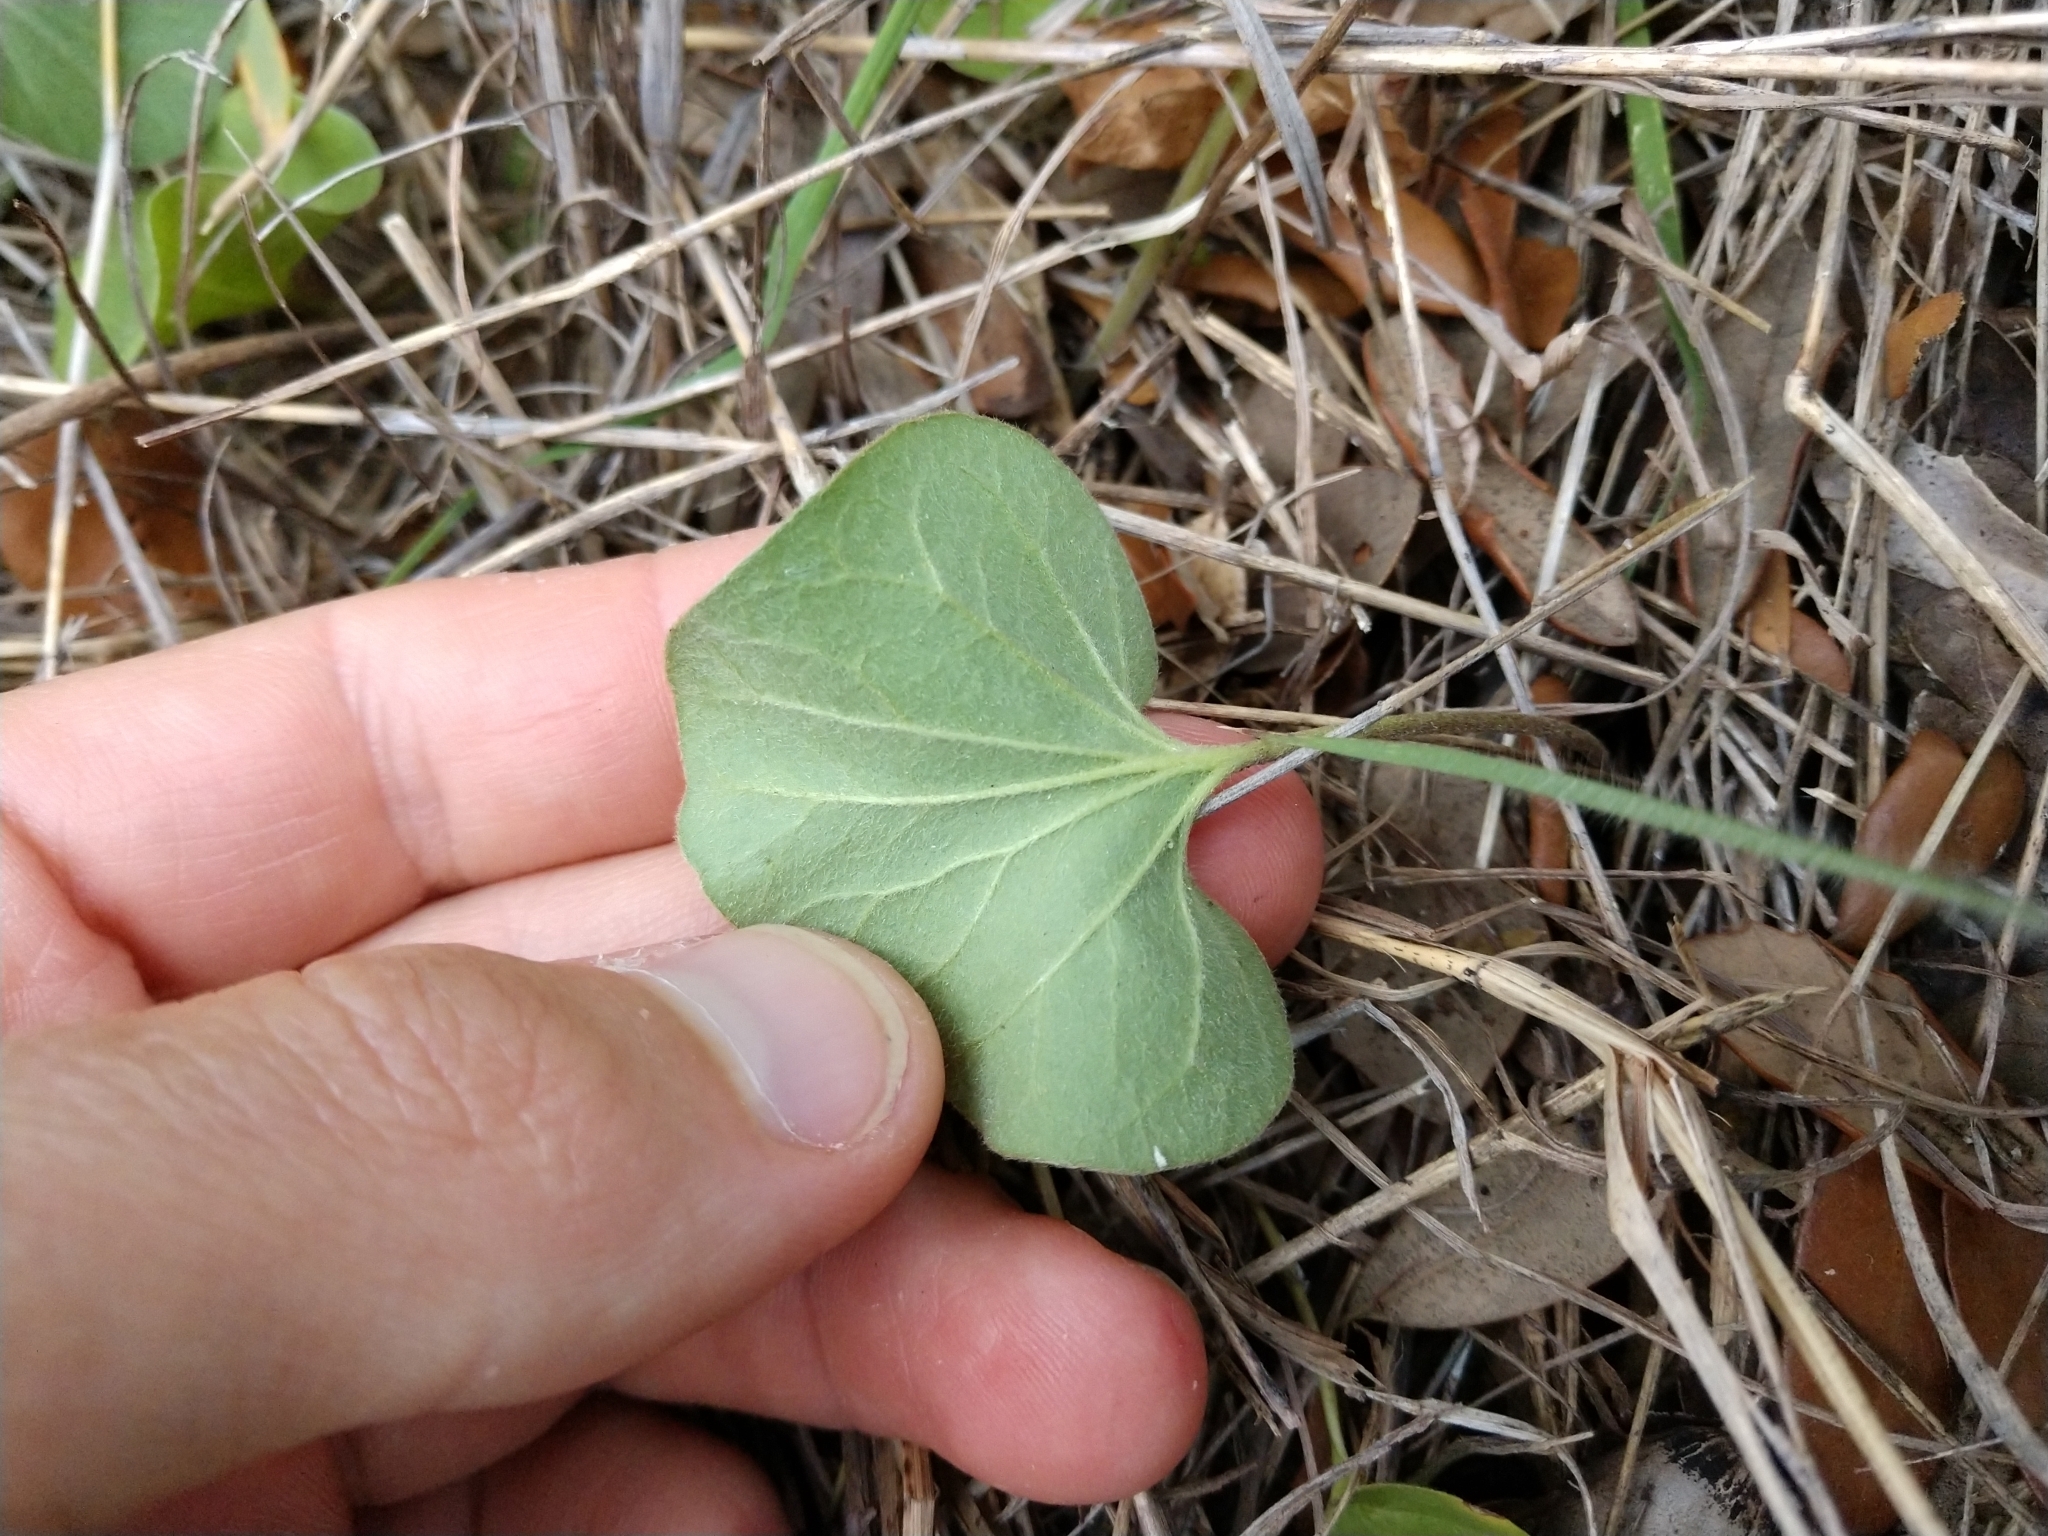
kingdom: Plantae
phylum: Tracheophyta
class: Magnoliopsida
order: Solanales
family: Convolvulaceae
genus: Dichondra
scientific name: Dichondra carolinensis
